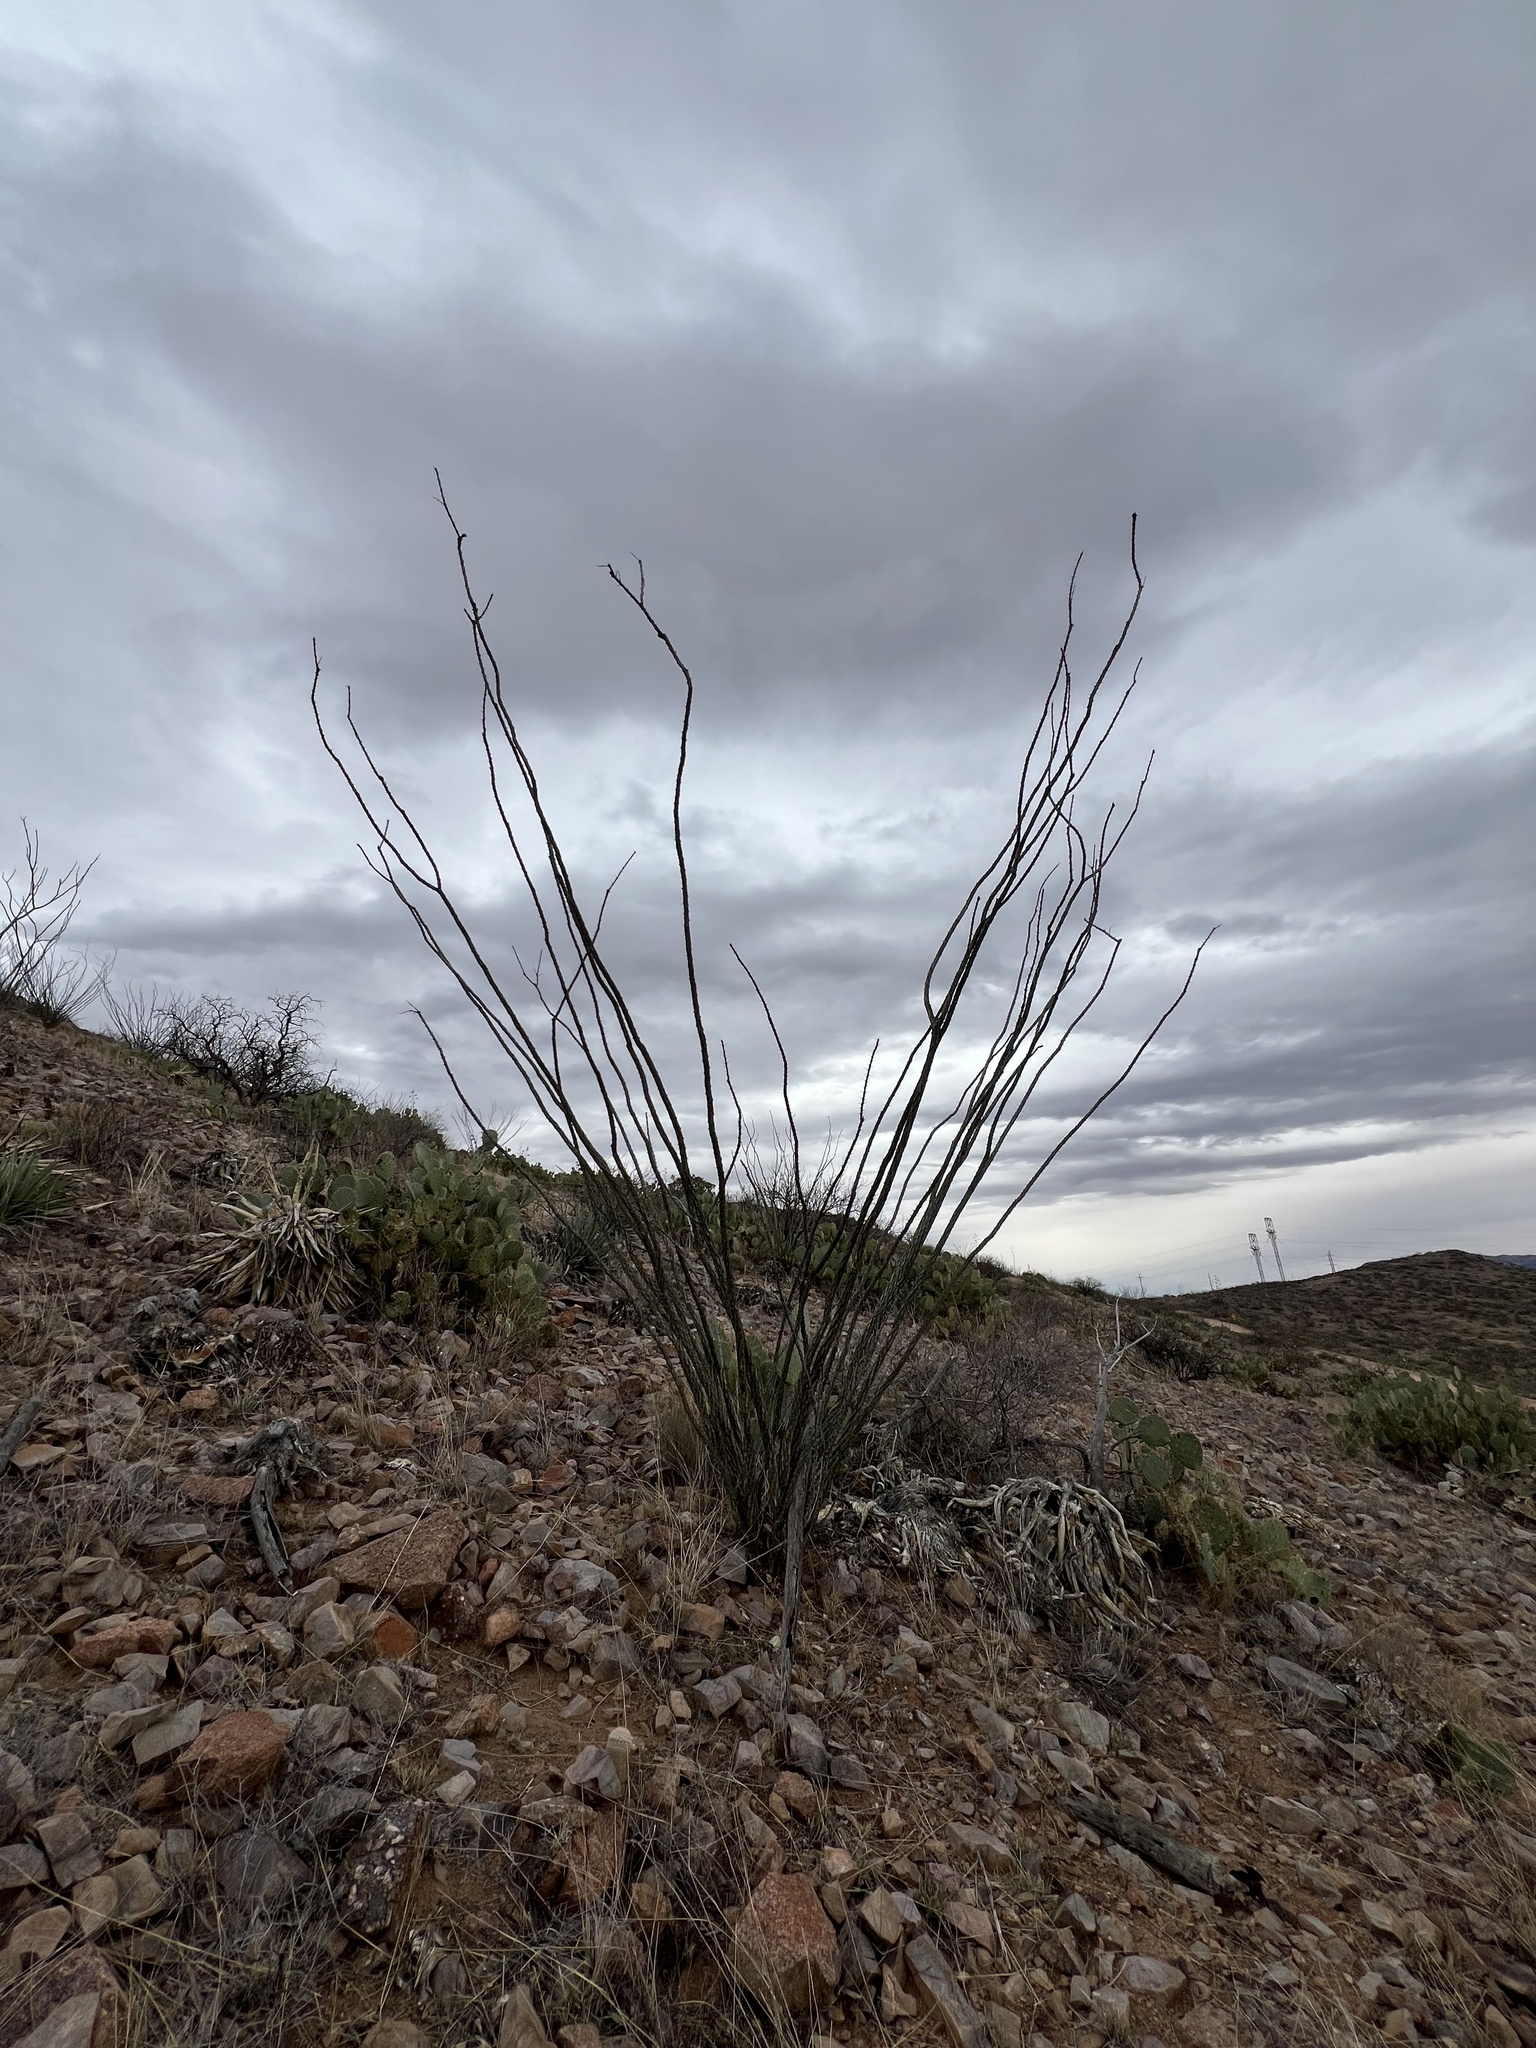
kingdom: Plantae
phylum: Tracheophyta
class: Magnoliopsida
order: Ericales
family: Fouquieriaceae
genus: Fouquieria
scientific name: Fouquieria splendens
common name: Vine-cactus
